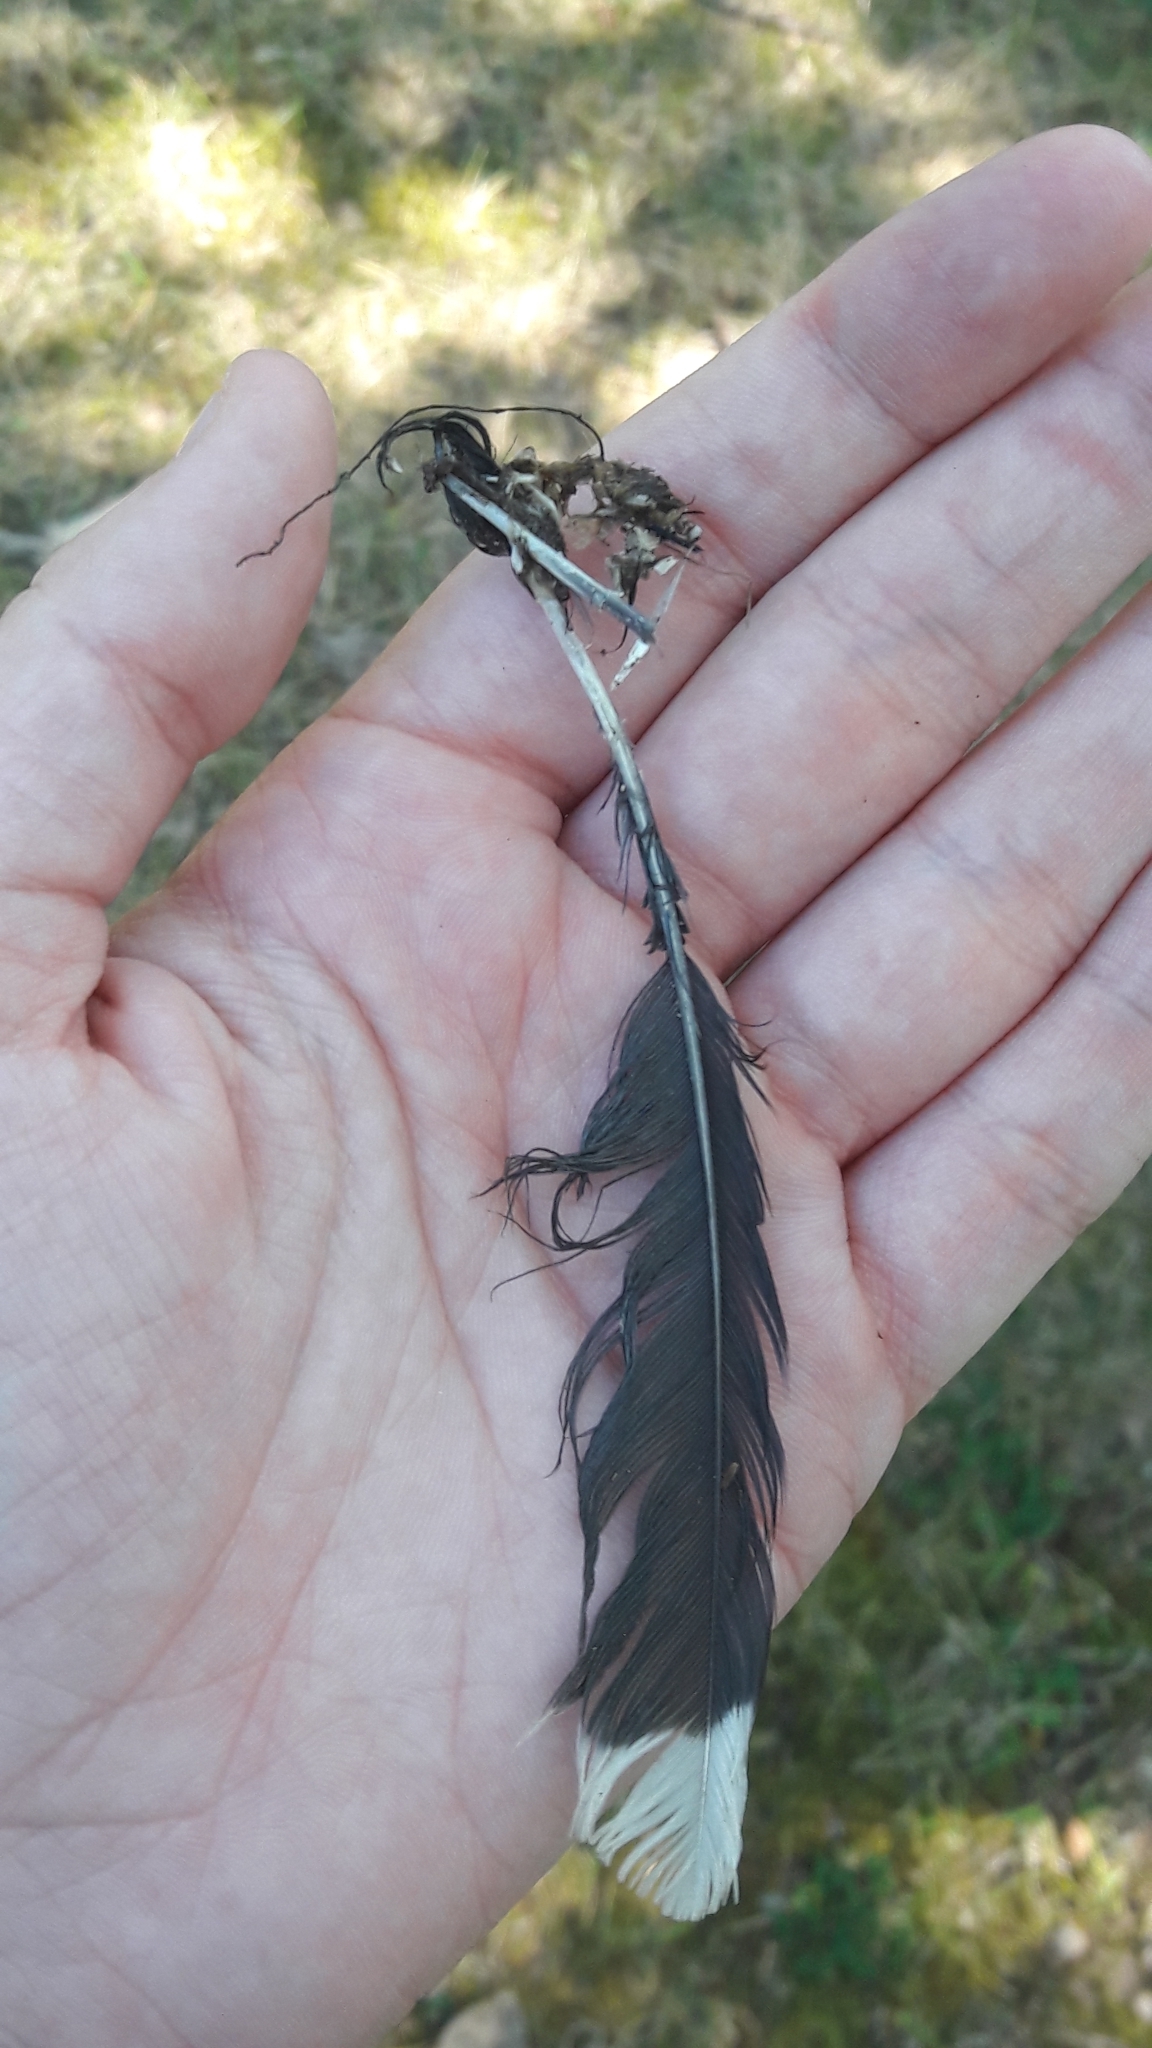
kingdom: Animalia
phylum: Chordata
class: Aves
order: Passeriformes
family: Corvidae
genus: Cyanocitta
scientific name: Cyanocitta cristata
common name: Blue jay
